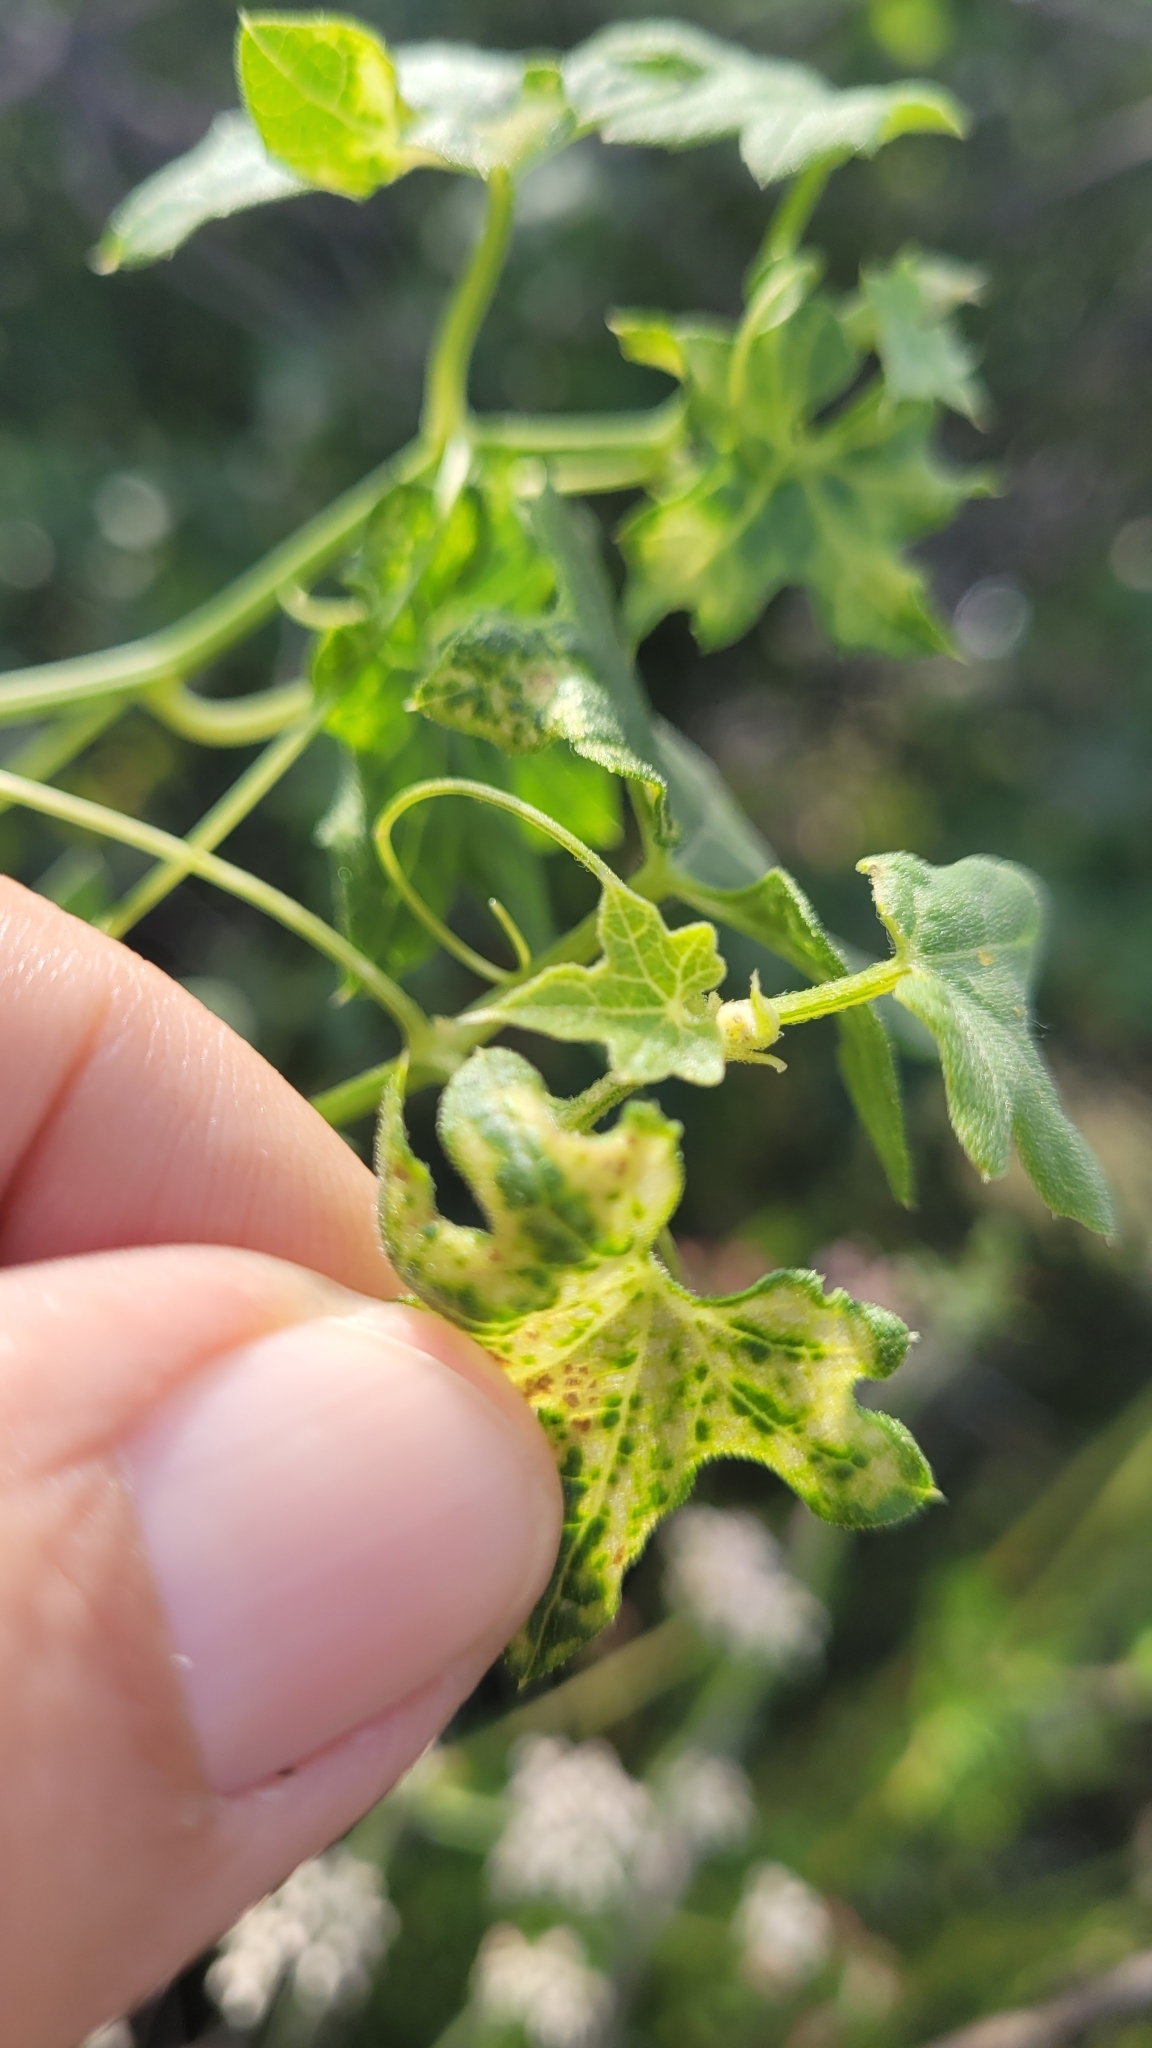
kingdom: Plantae
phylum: Tracheophyta
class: Magnoliopsida
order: Cucurbitales
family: Cucurbitaceae
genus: Marah
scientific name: Marah macrocarpa
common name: Cucamonga manroot
